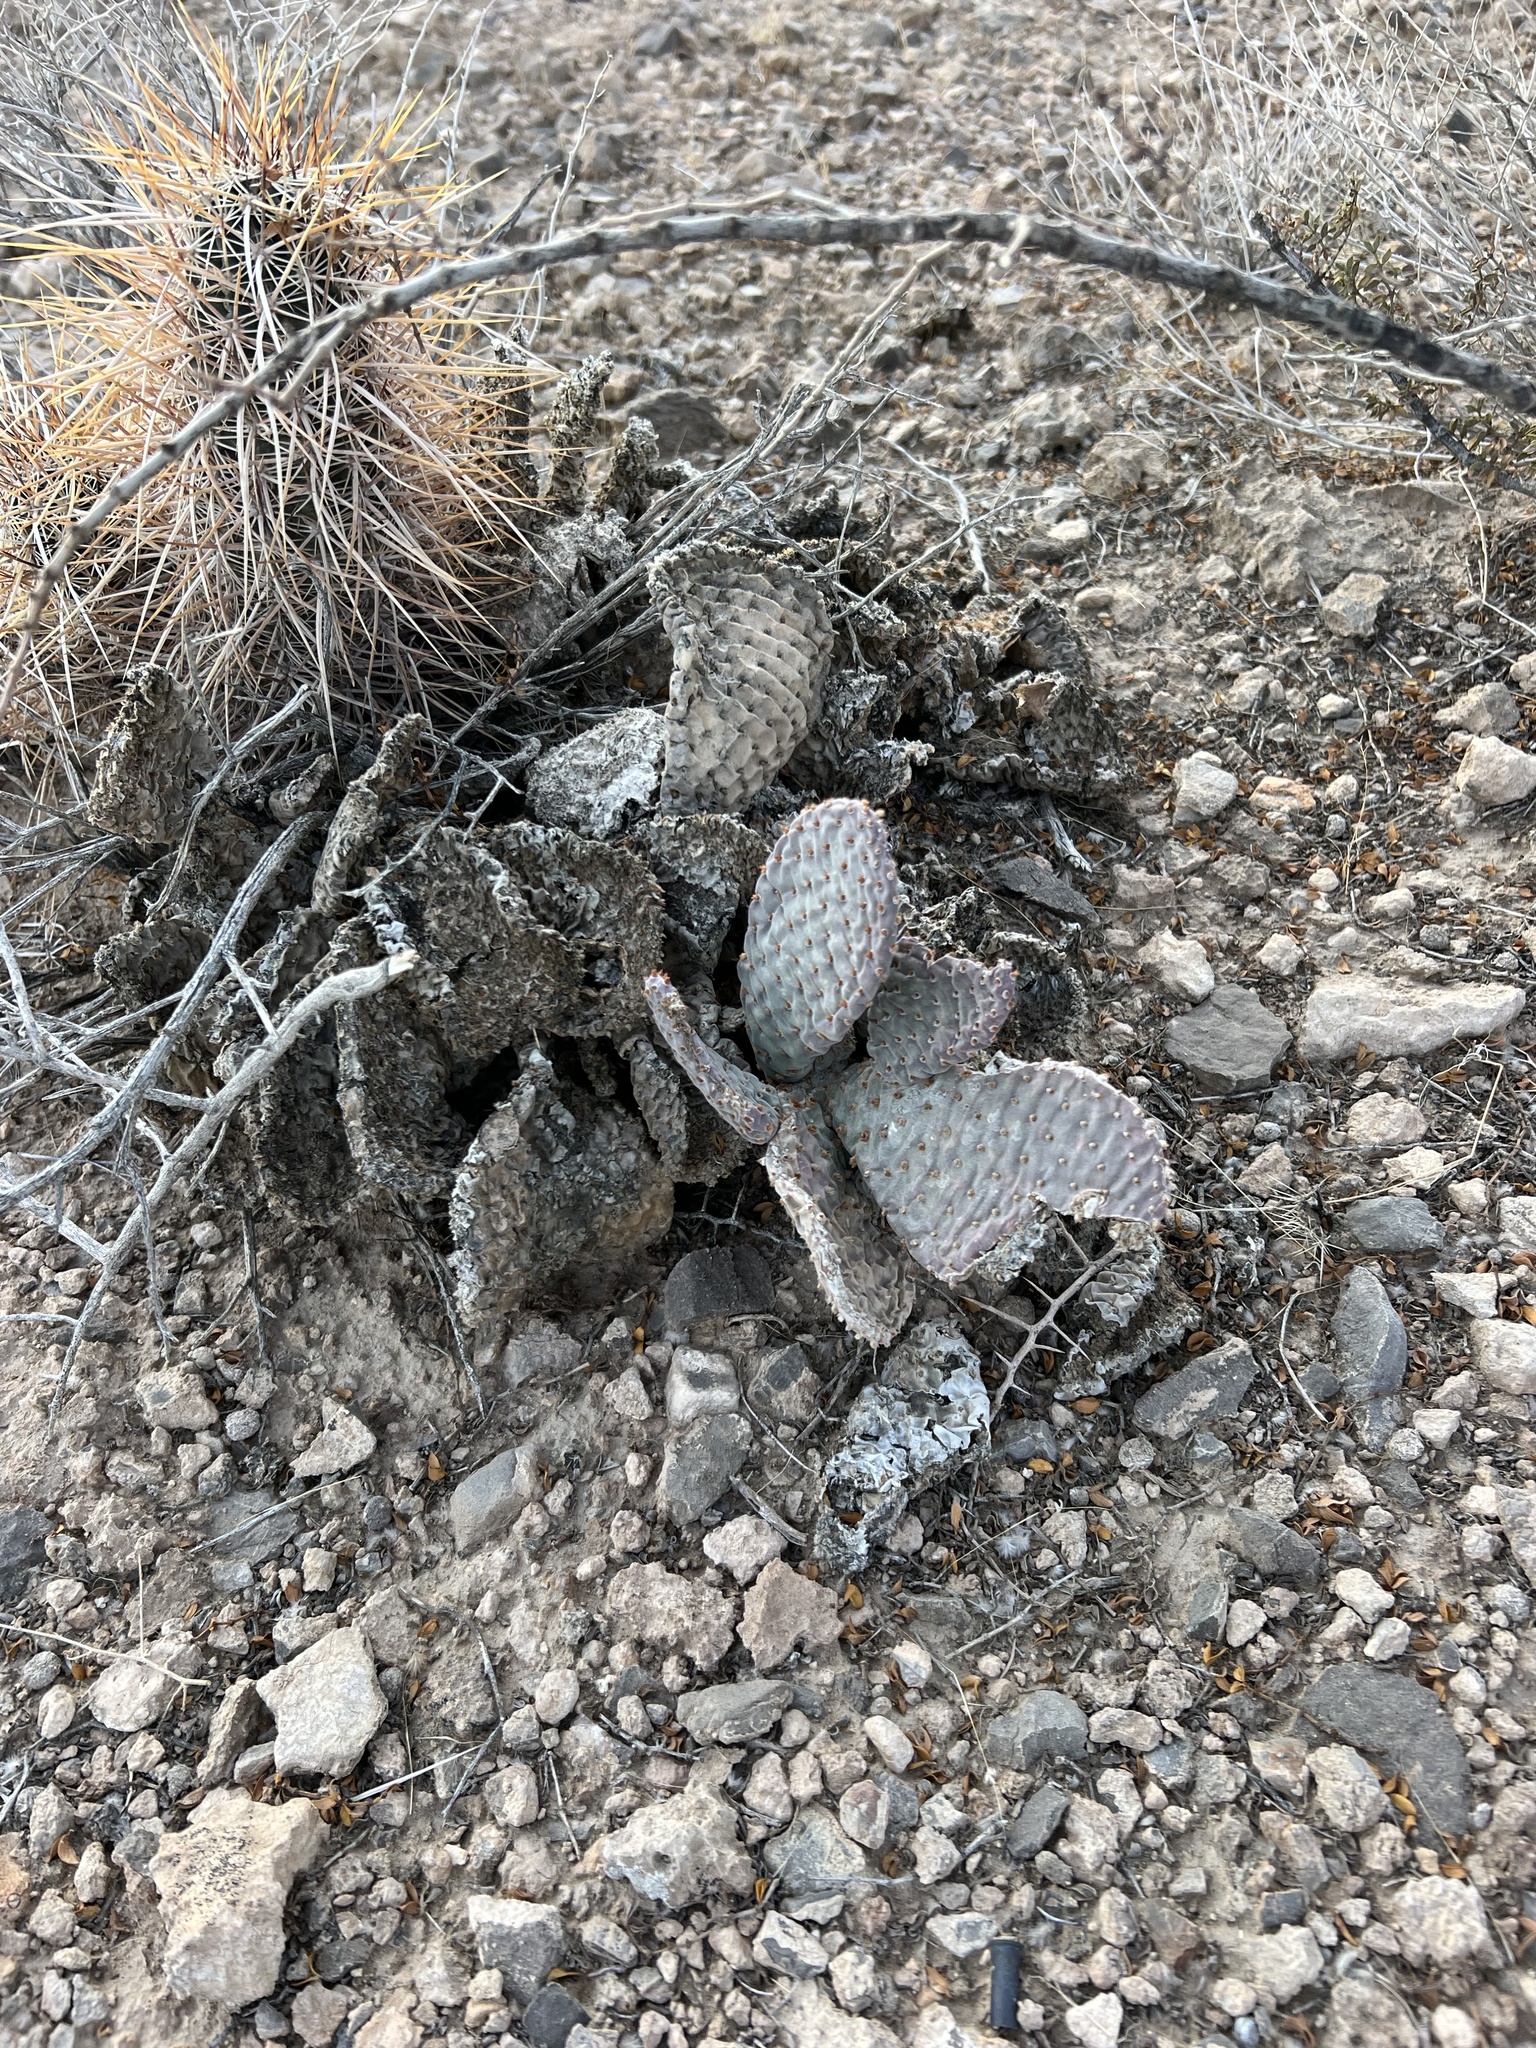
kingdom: Plantae
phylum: Tracheophyta
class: Magnoliopsida
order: Caryophyllales
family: Cactaceae
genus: Opuntia
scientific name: Opuntia basilaris
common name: Beavertail prickly-pear
